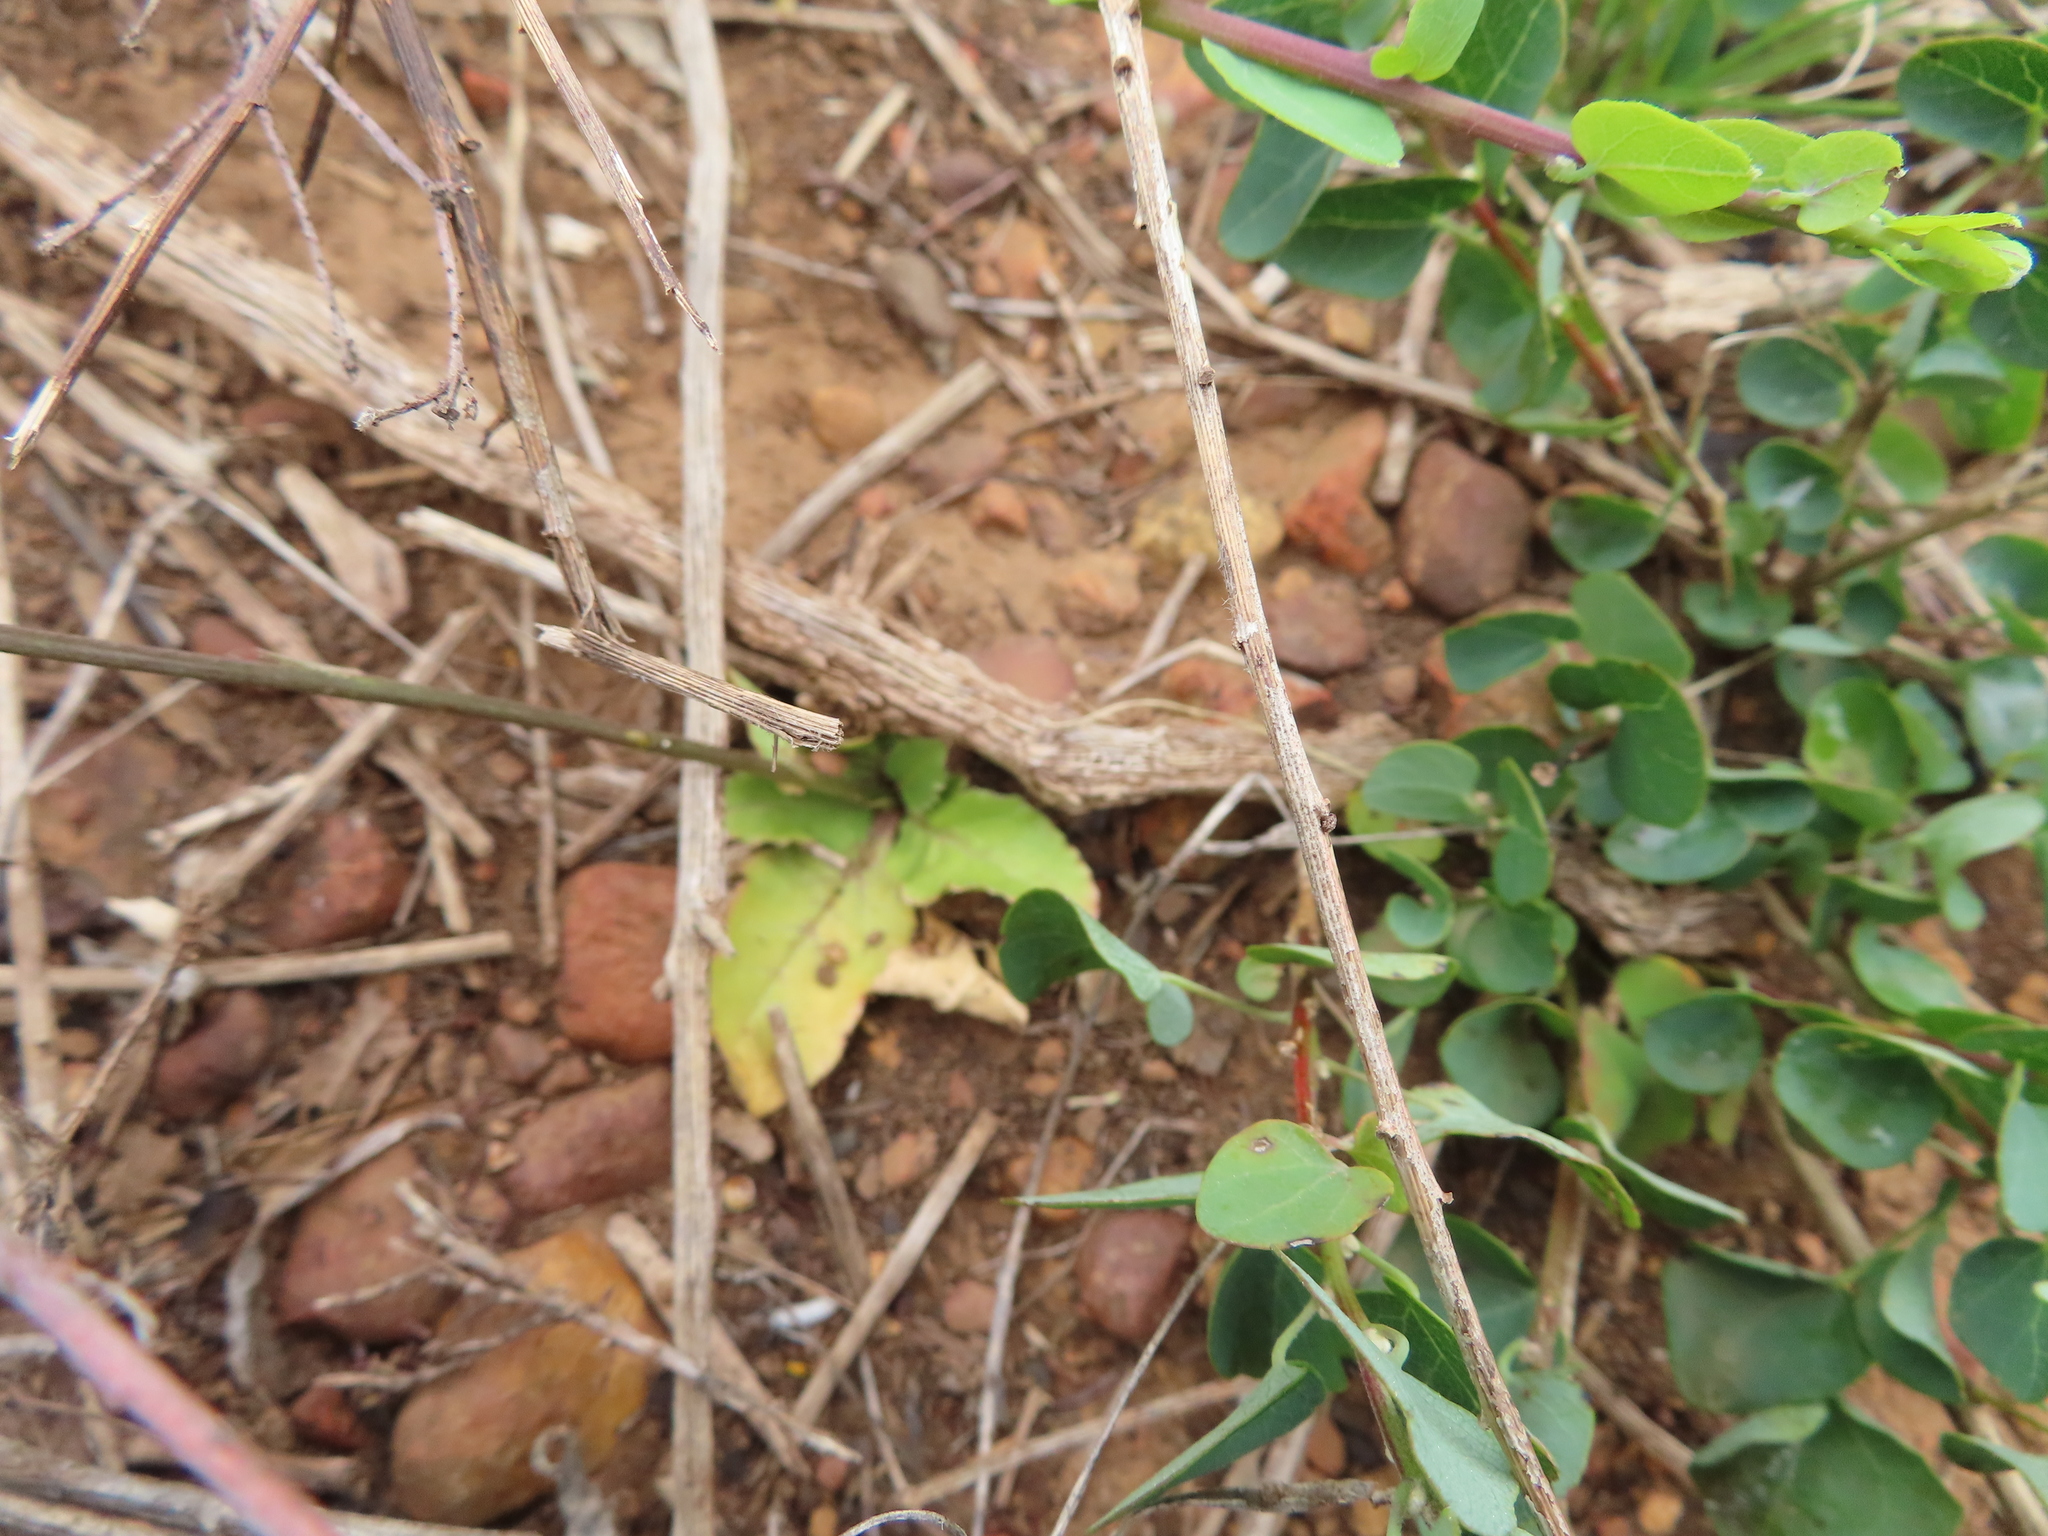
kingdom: Plantae
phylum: Tracheophyta
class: Magnoliopsida
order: Asterales
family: Campanulaceae
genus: Cyphia
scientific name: Cyphia bulbosa
